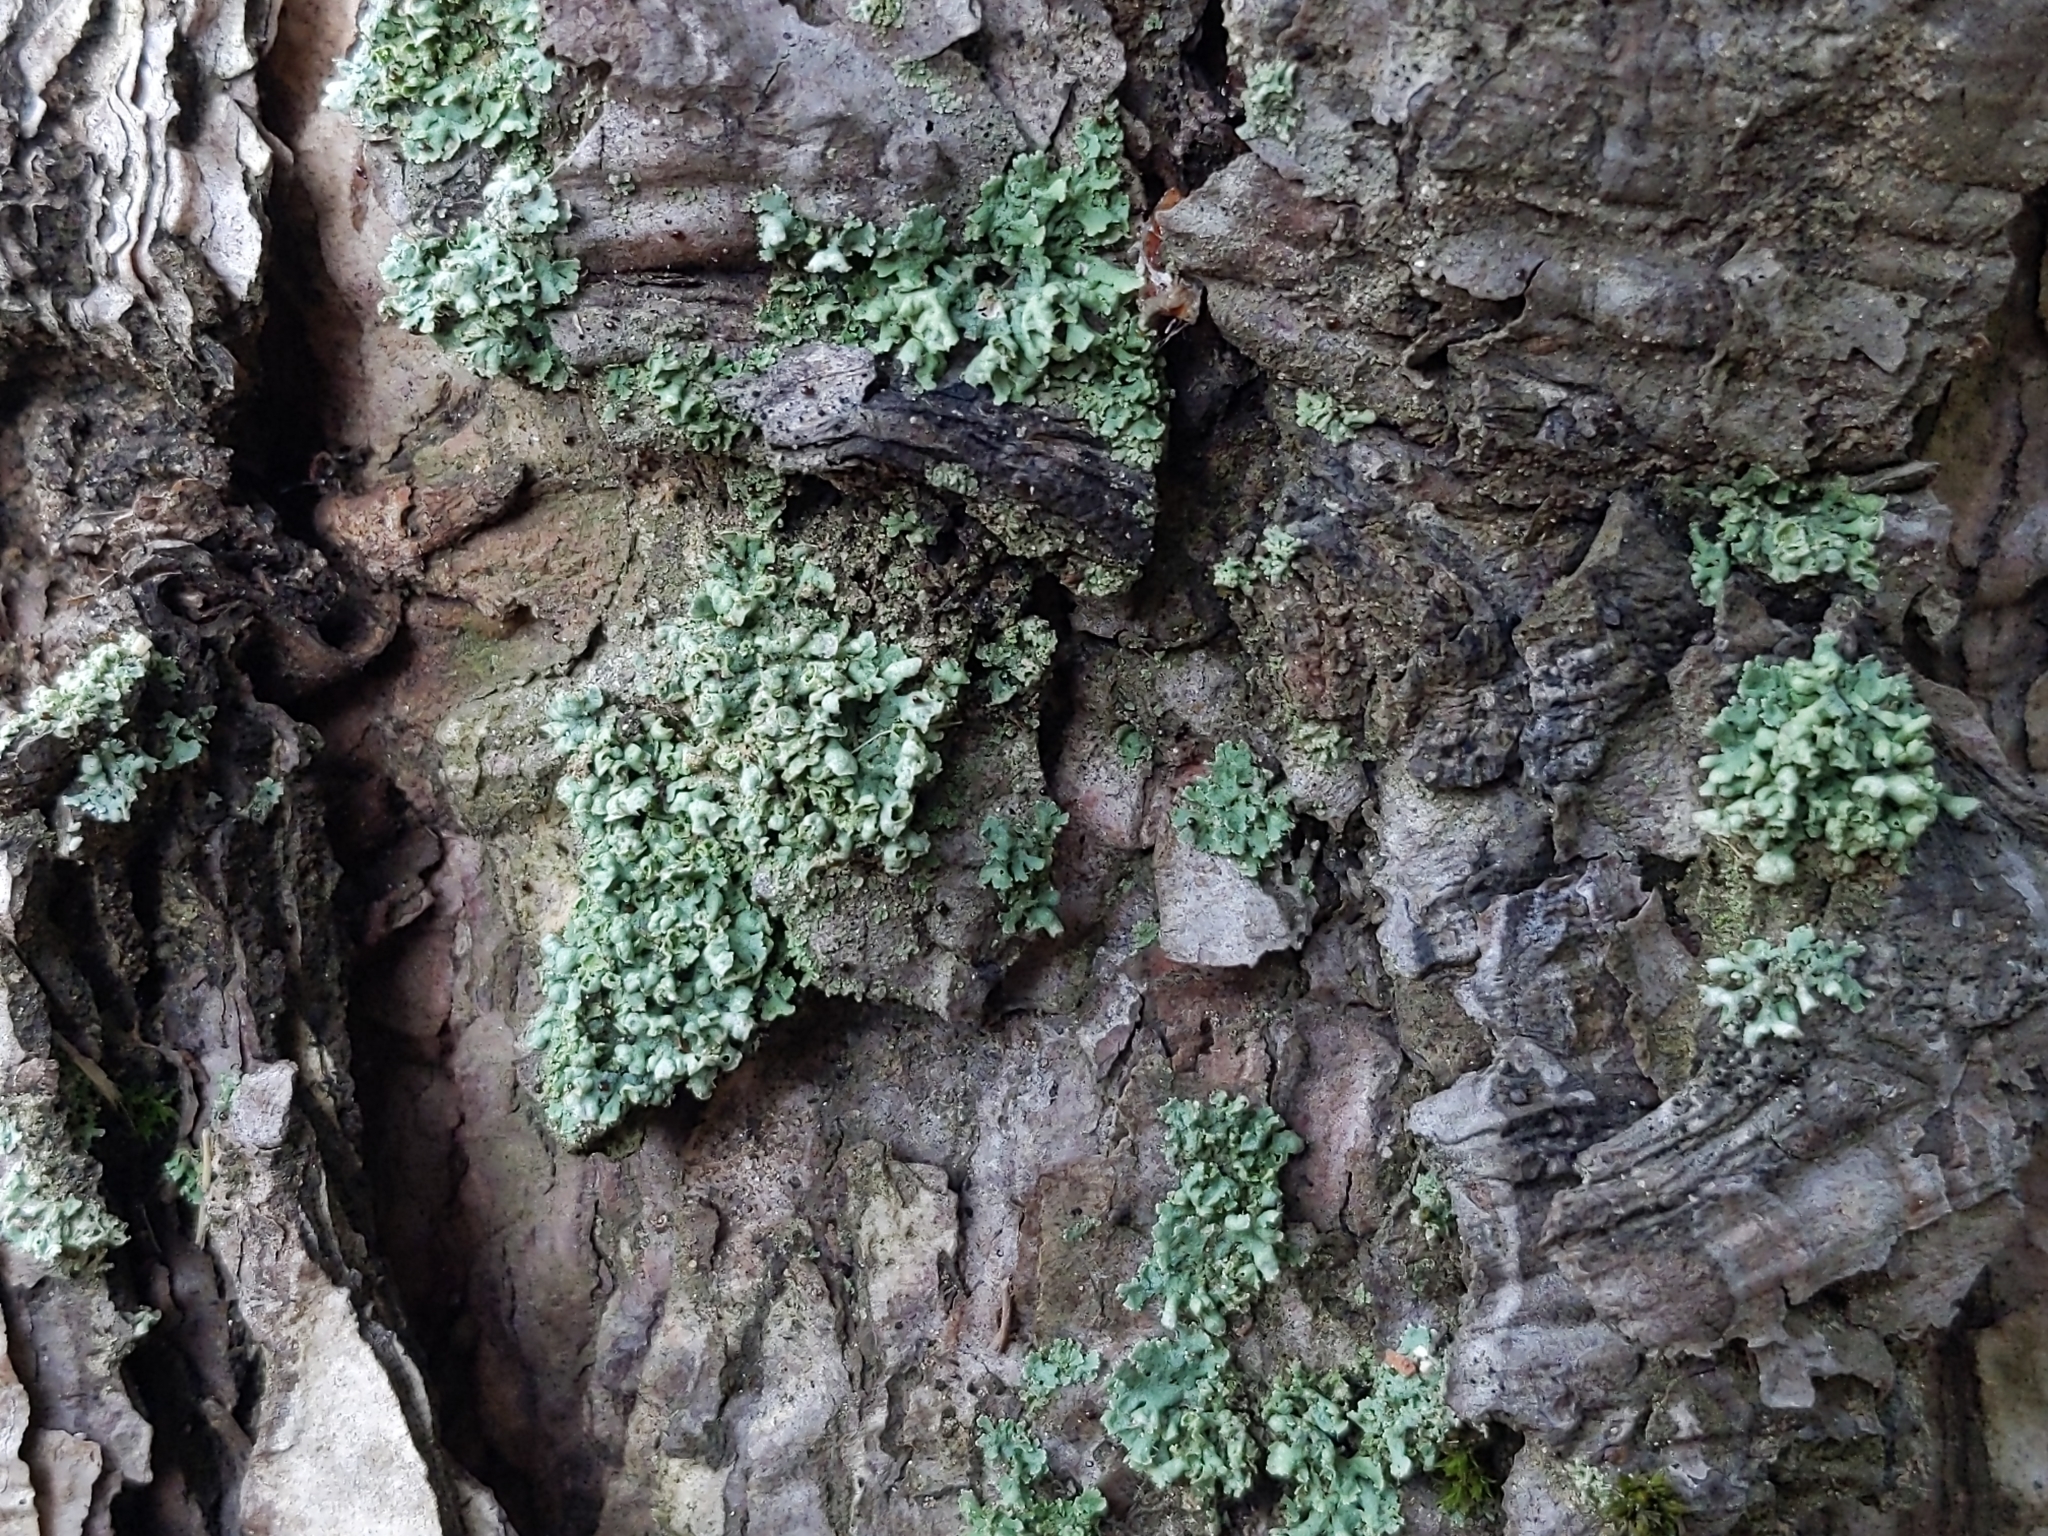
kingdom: Fungi
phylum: Ascomycota
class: Lecanoromycetes
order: Lecanorales
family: Parmeliaceae
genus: Hypogymnia
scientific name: Hypogymnia physodes
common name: Dark crottle
